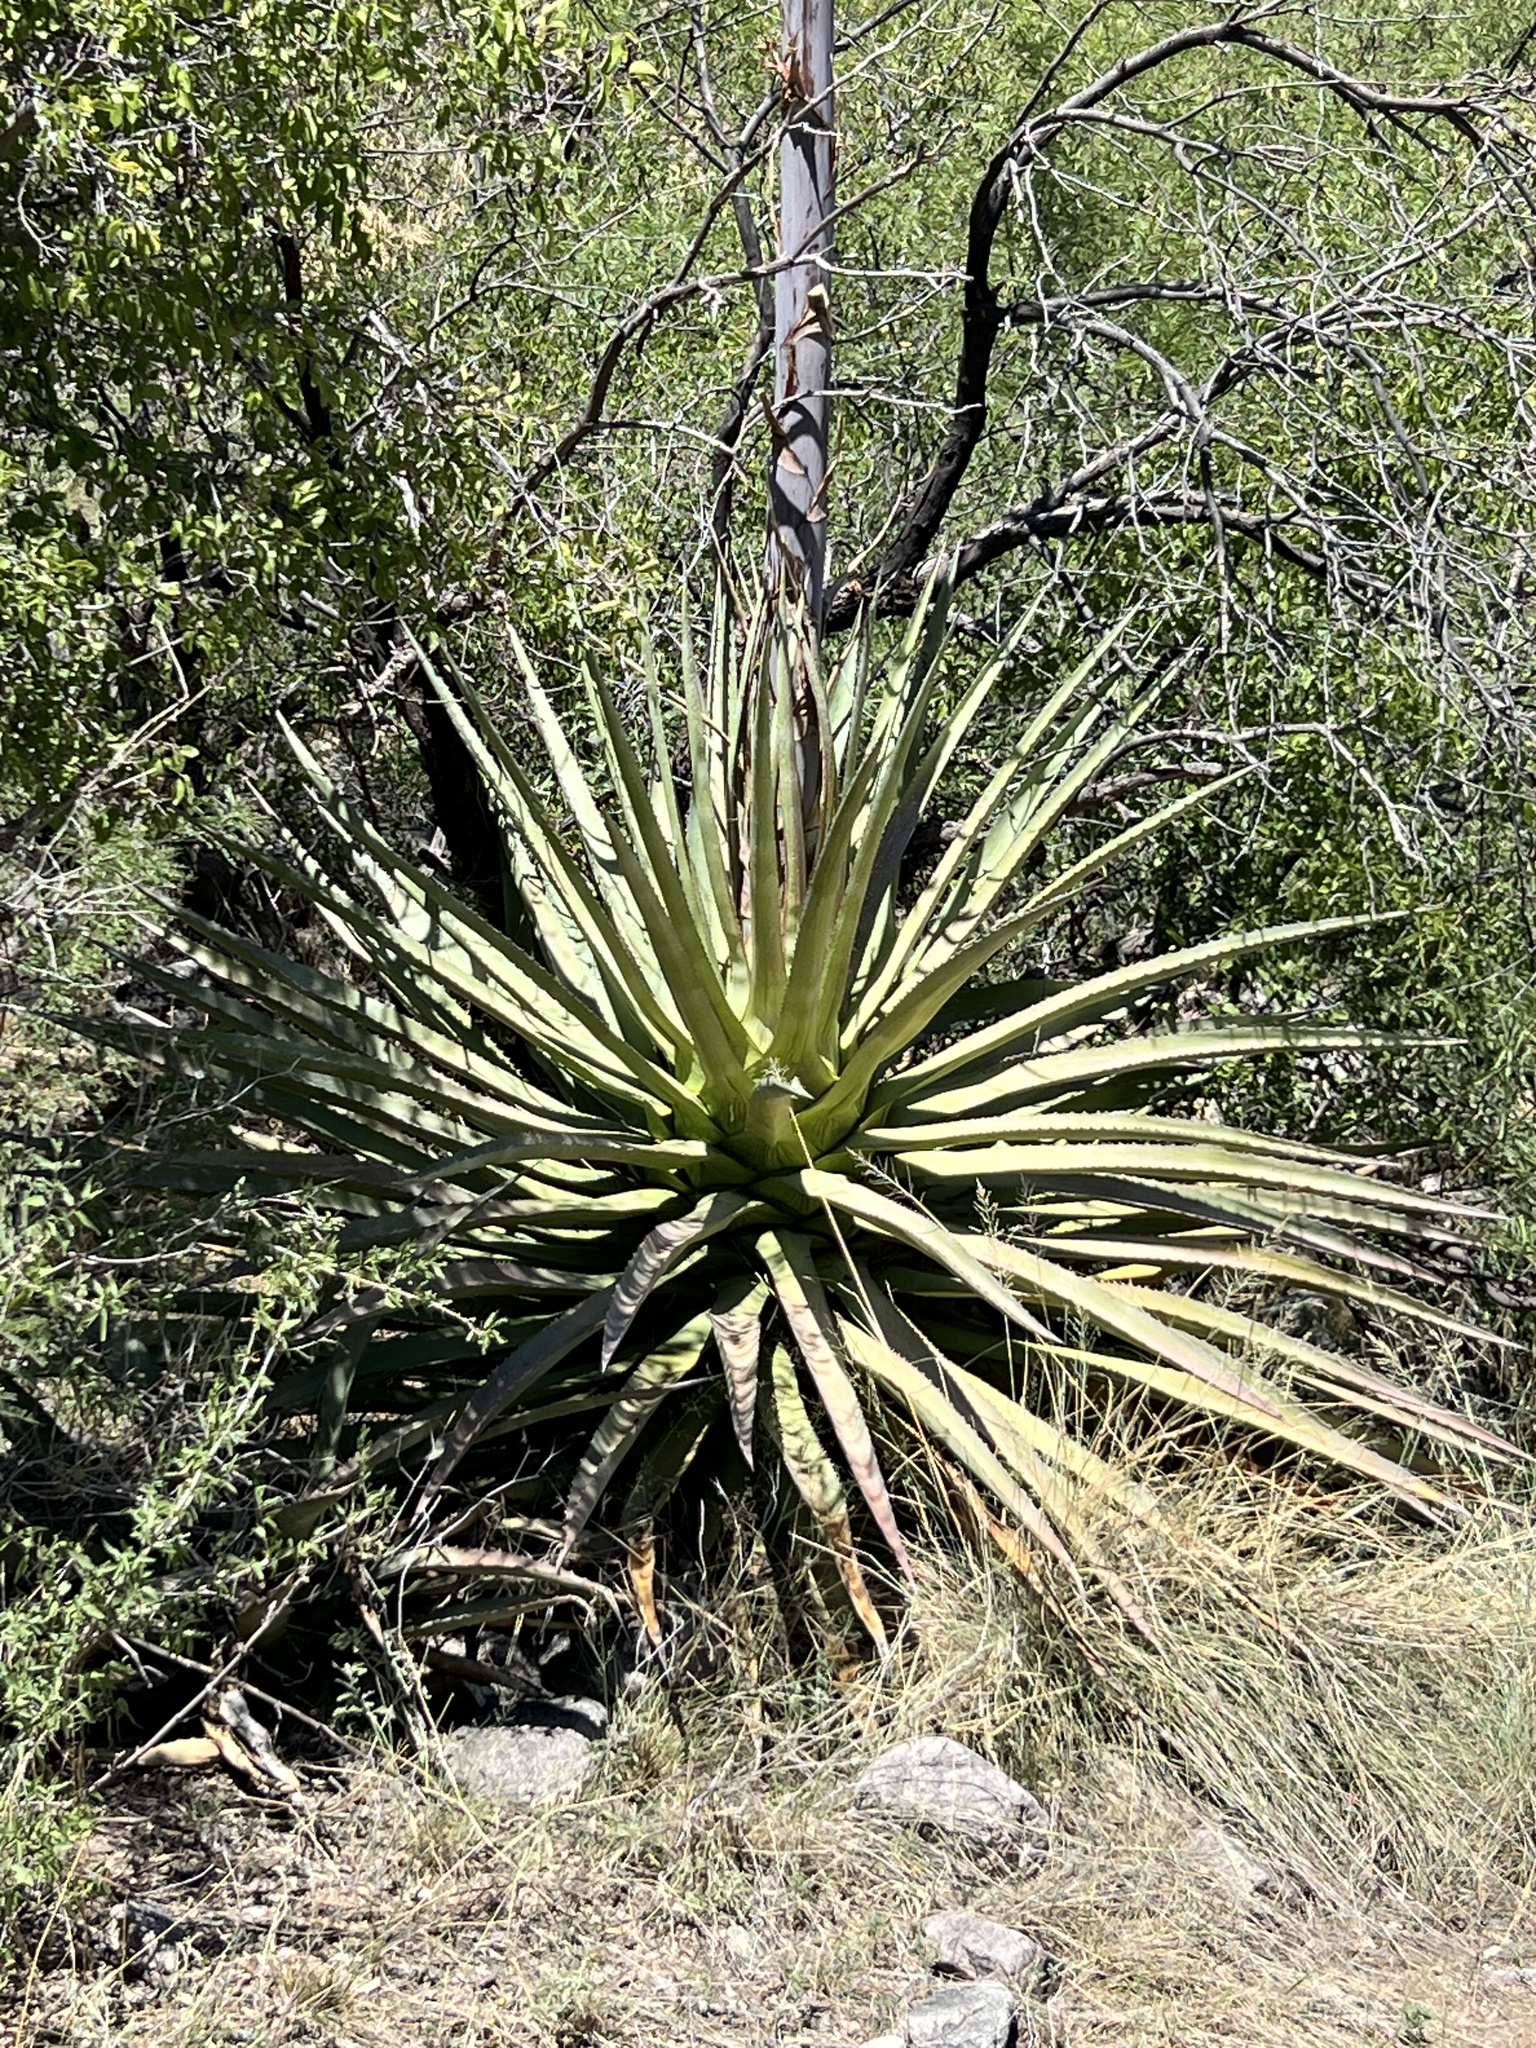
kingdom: Plantae
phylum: Tracheophyta
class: Liliopsida
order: Asparagales
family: Asparagaceae
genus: Agave
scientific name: Agave palmeri
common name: Palmer agave
